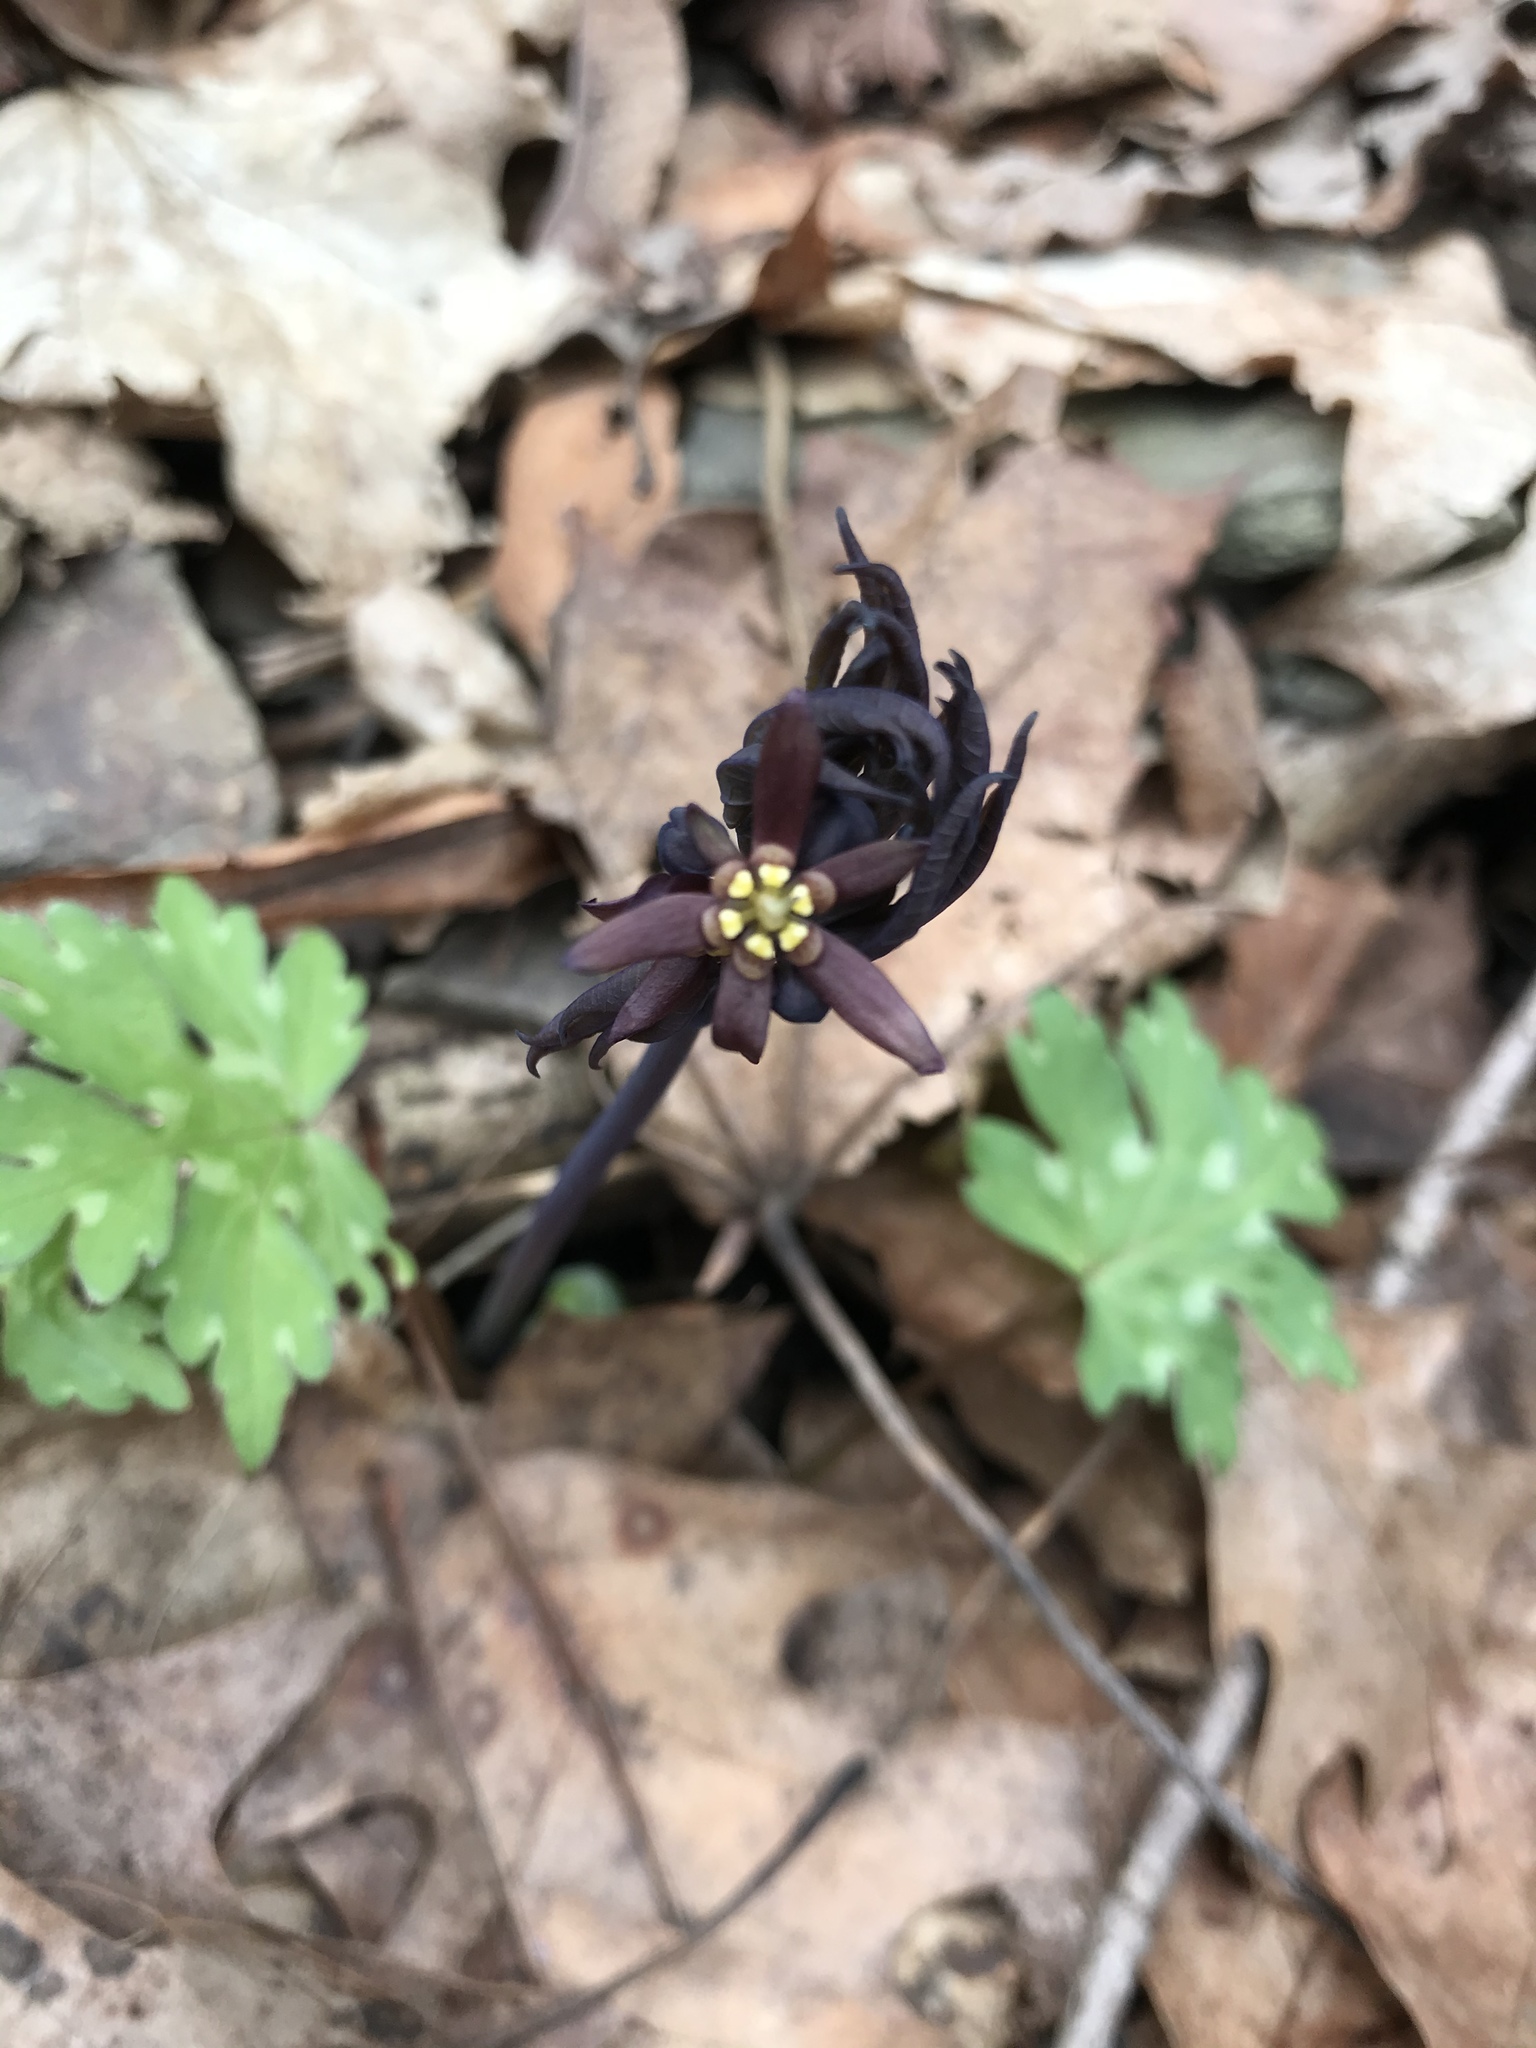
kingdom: Plantae
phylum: Tracheophyta
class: Magnoliopsida
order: Ranunculales
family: Berberidaceae
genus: Caulophyllum
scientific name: Caulophyllum giganteum
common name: Blue cohosh
